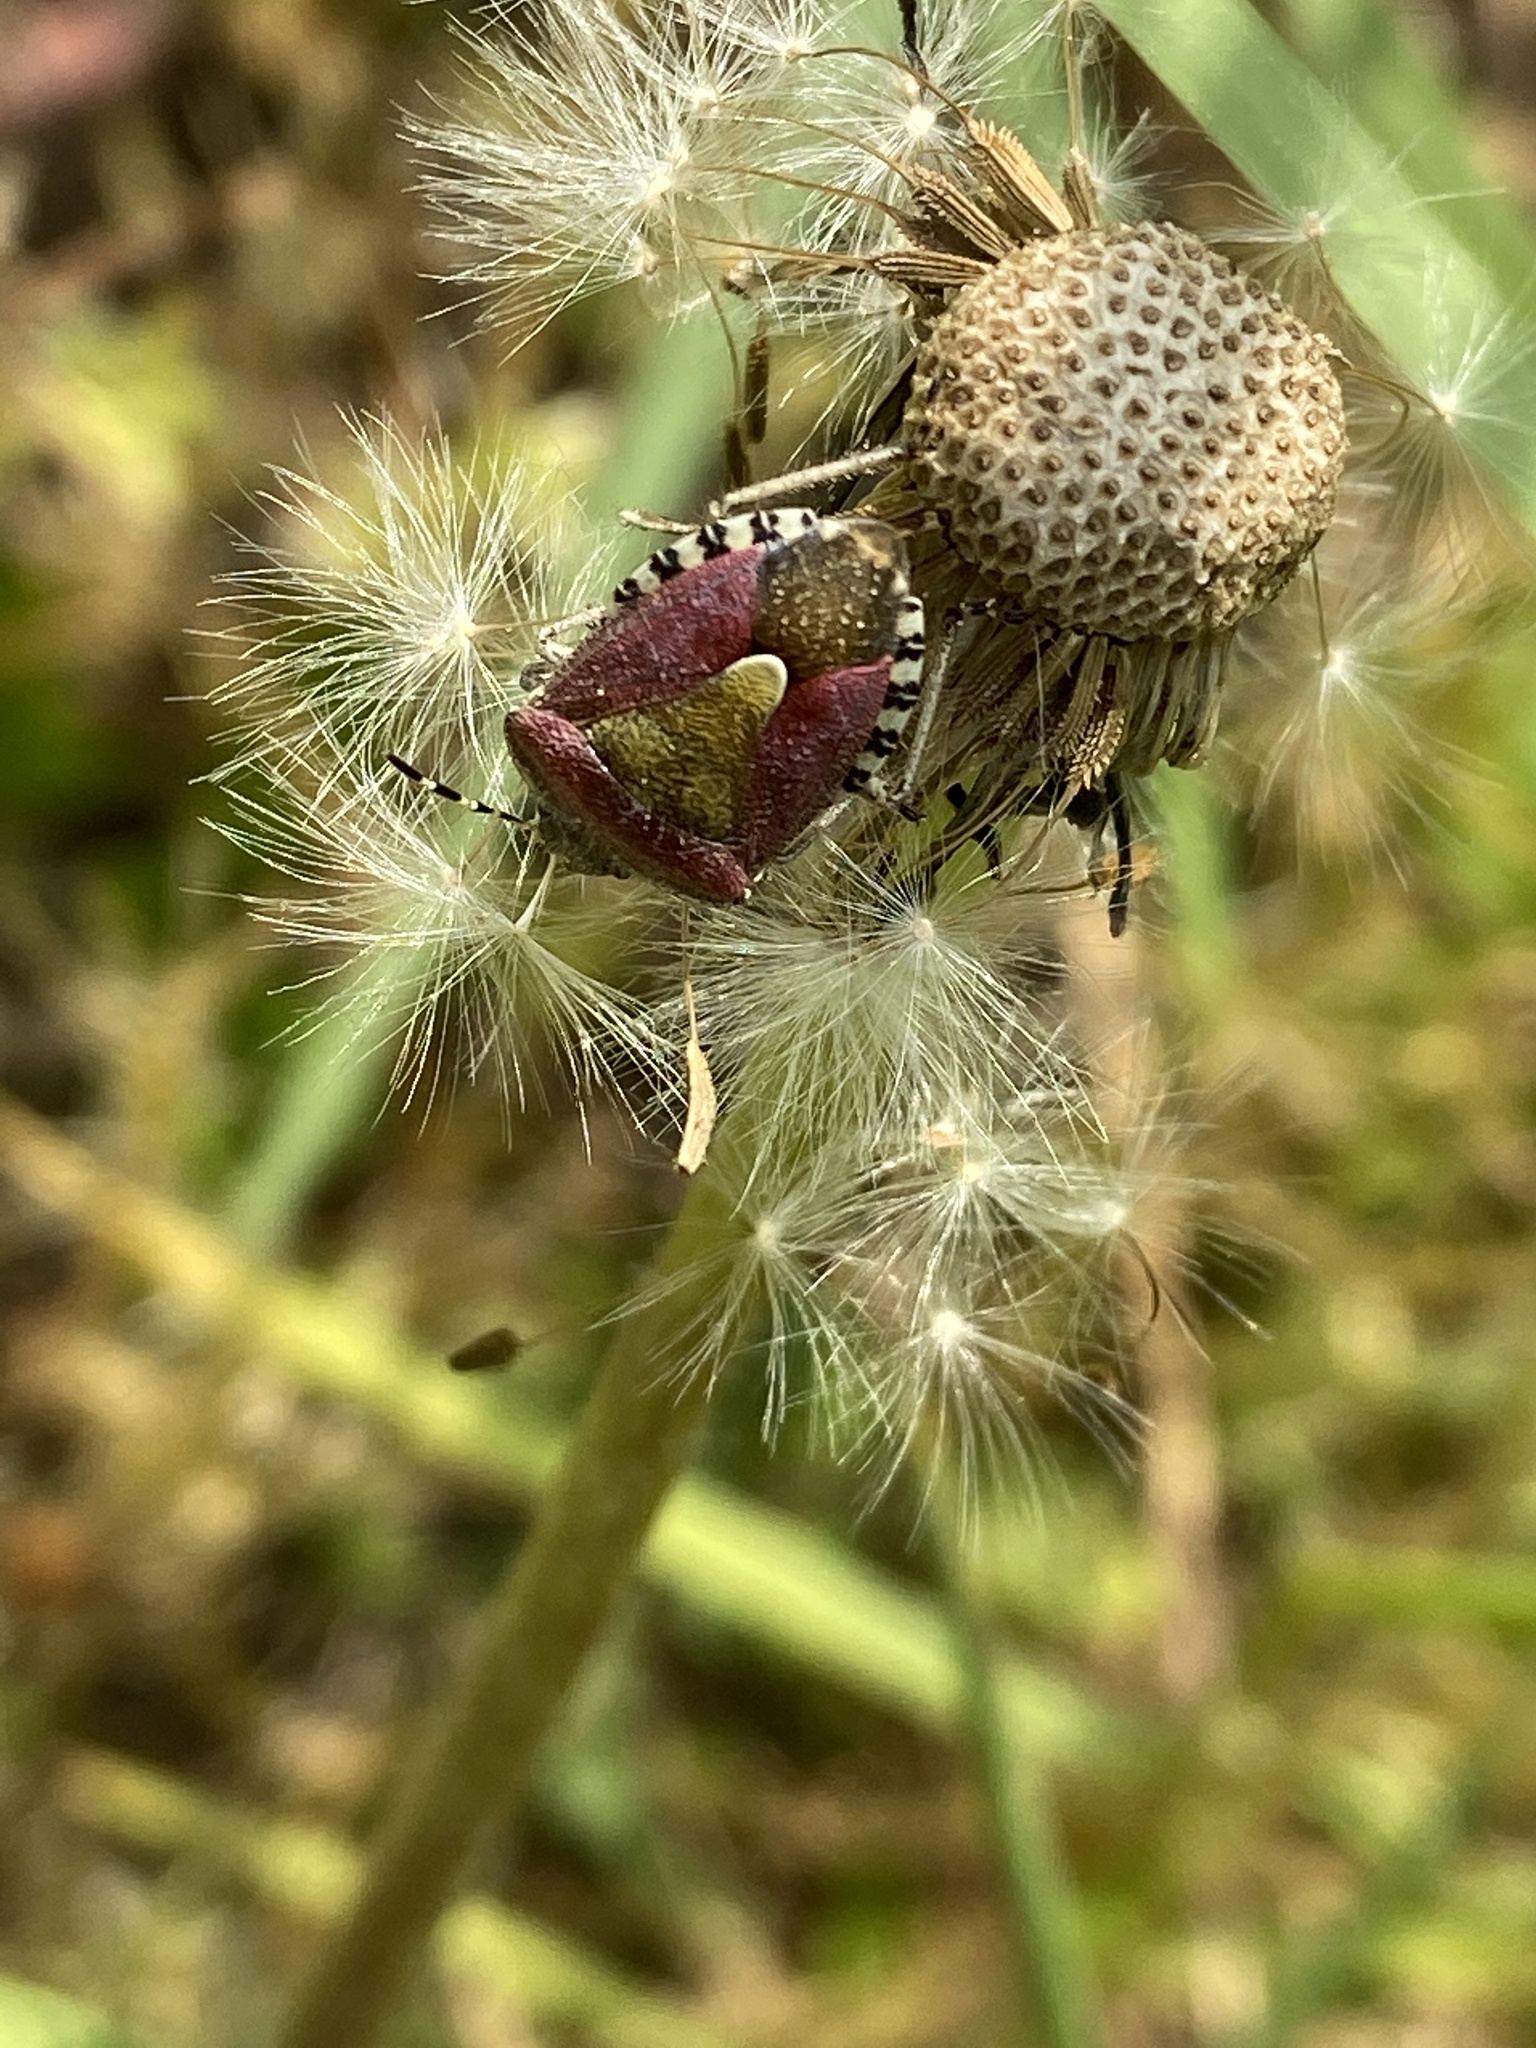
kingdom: Animalia
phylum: Arthropoda
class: Insecta
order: Hemiptera
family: Pentatomidae
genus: Dolycoris
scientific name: Dolycoris baccarum
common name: Sloe bug
